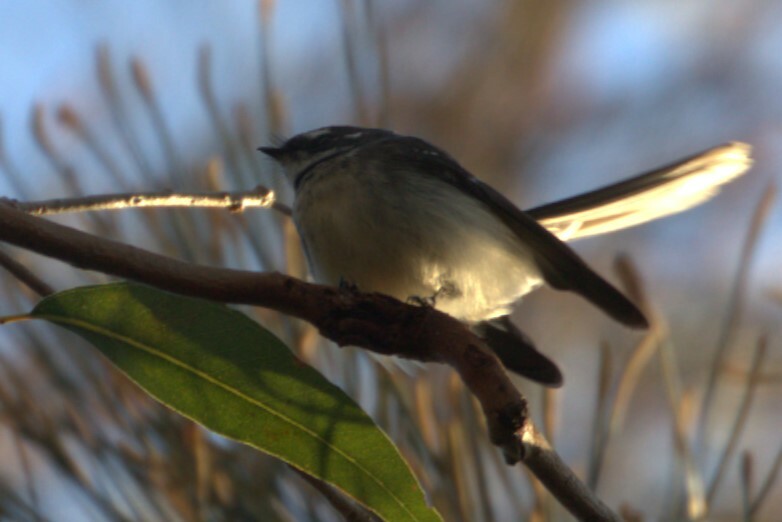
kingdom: Animalia
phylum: Chordata
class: Aves
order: Passeriformes
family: Rhipiduridae
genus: Rhipidura
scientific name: Rhipidura albiscapa
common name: Grey fantail
